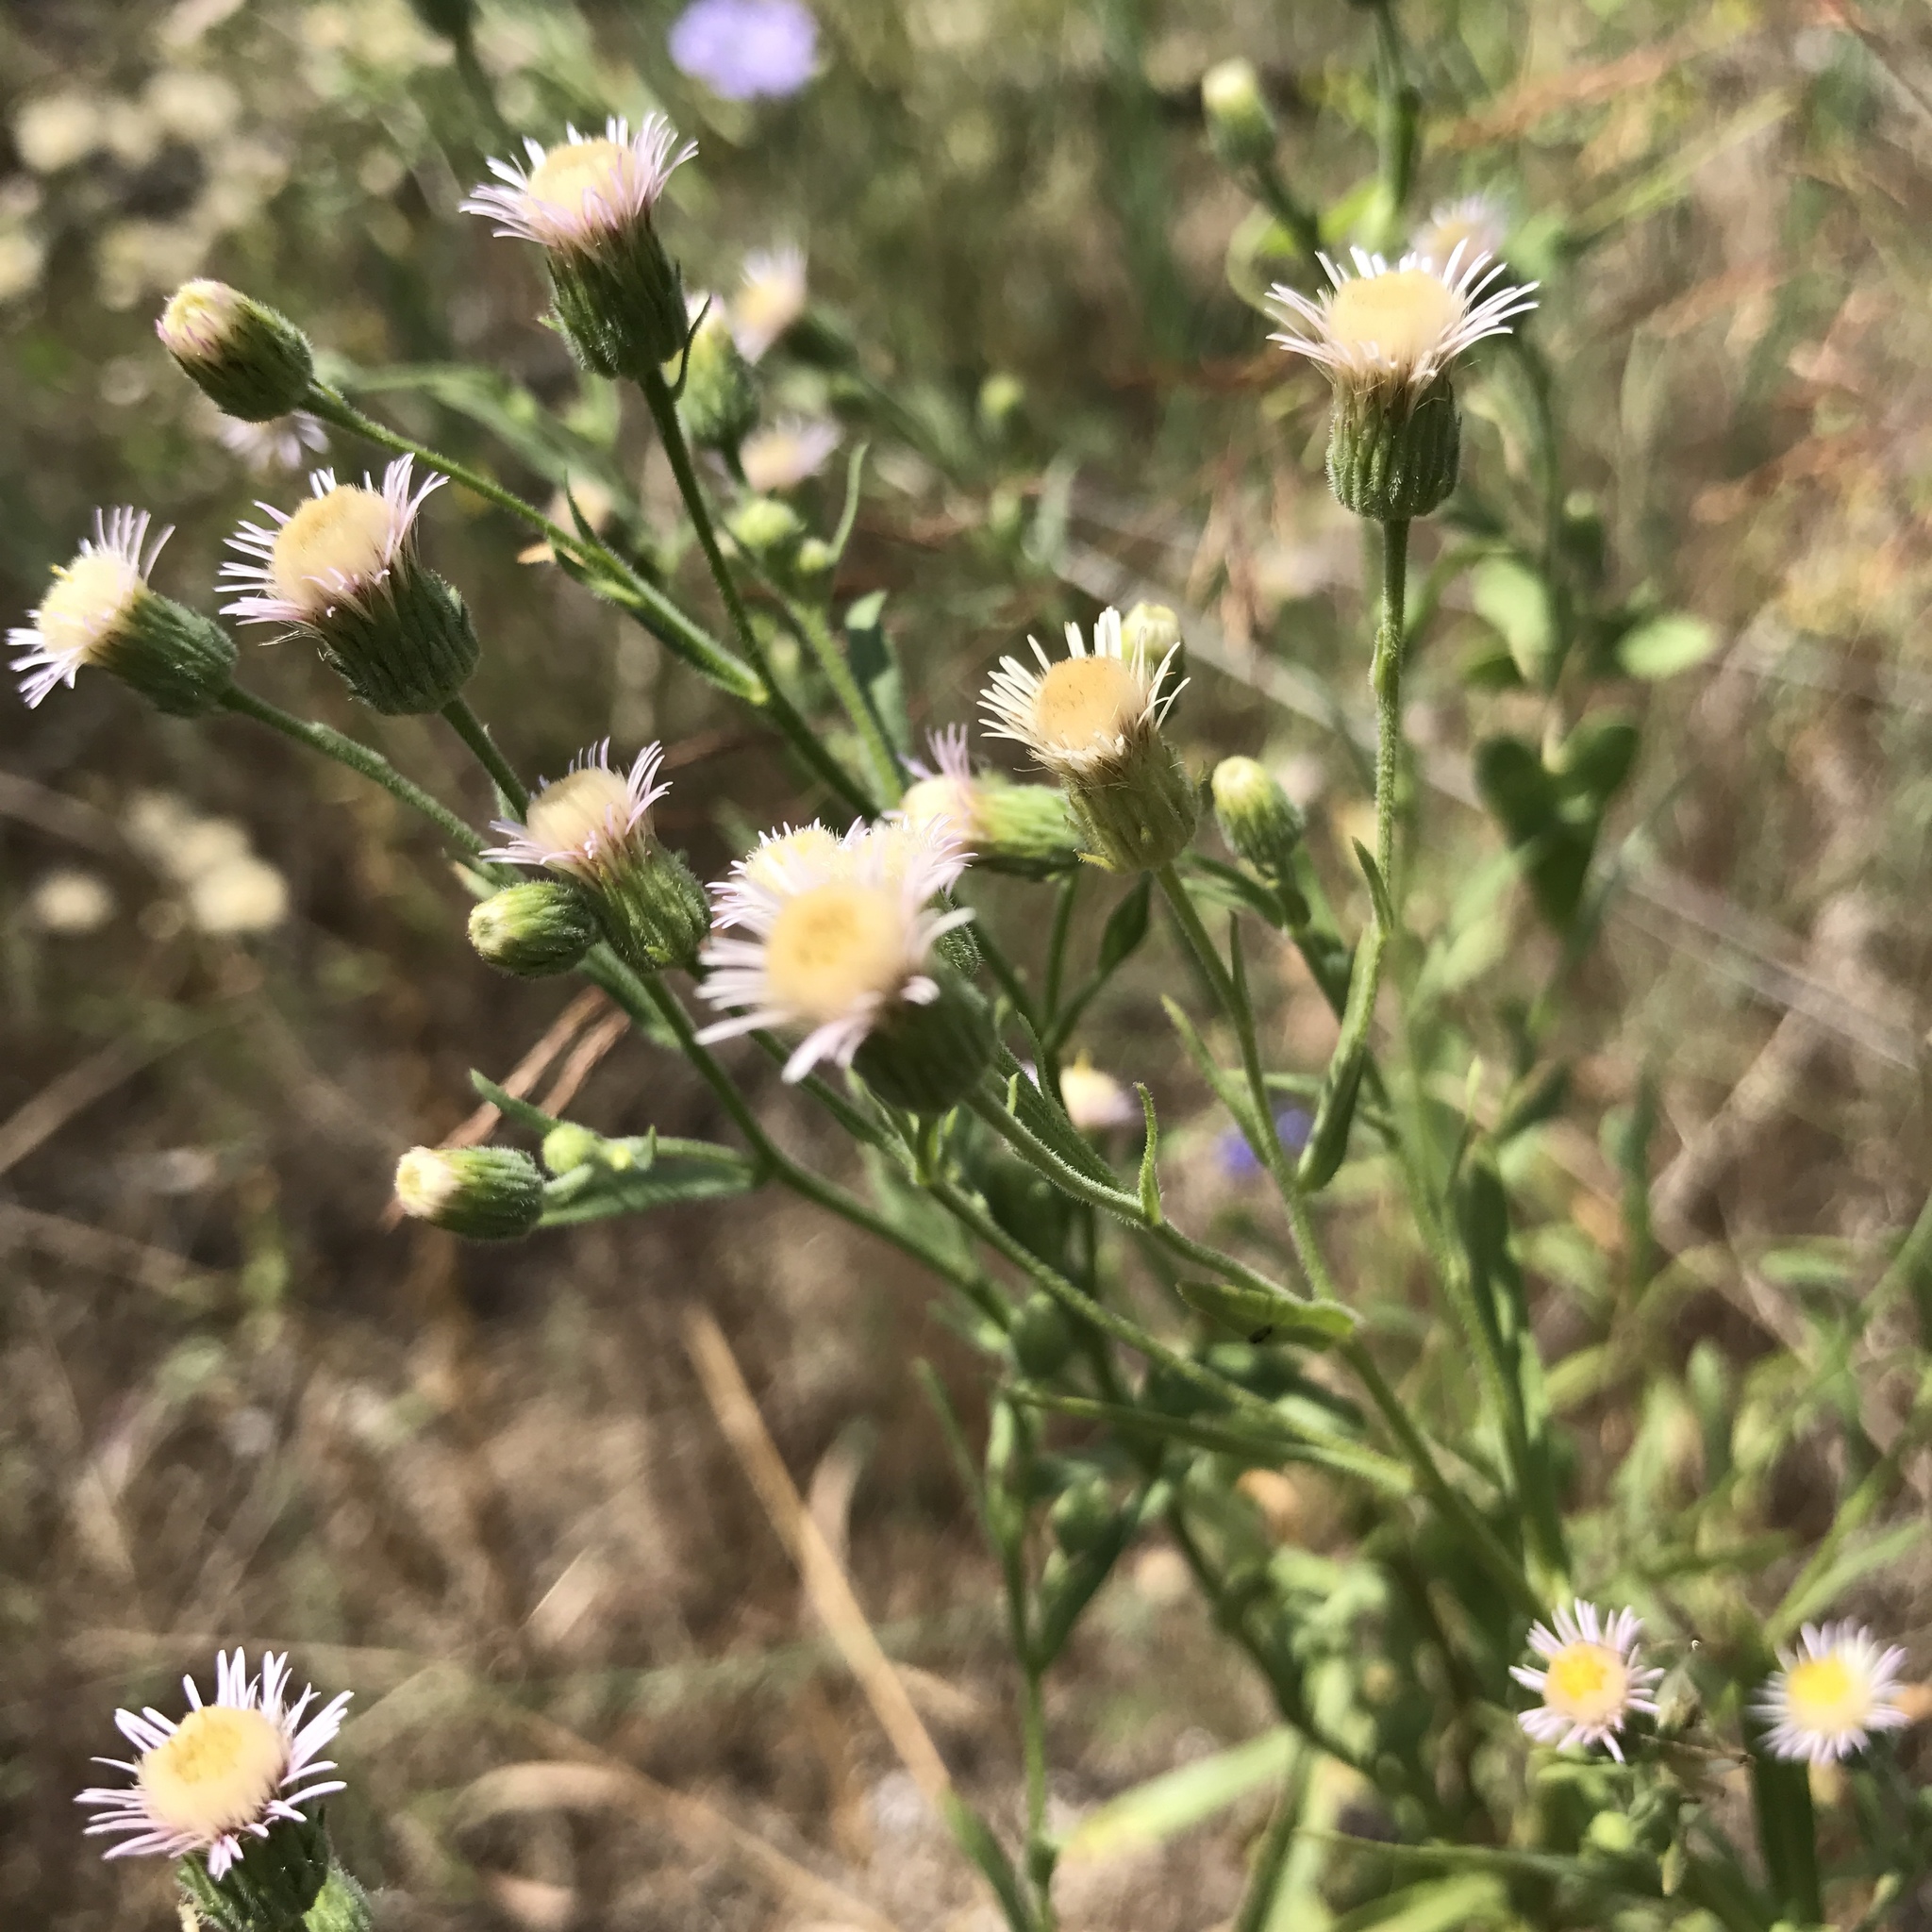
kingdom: Plantae
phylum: Tracheophyta
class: Magnoliopsida
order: Asterales
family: Asteraceae
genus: Erigeron
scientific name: Erigeron acris
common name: Blue fleabane
